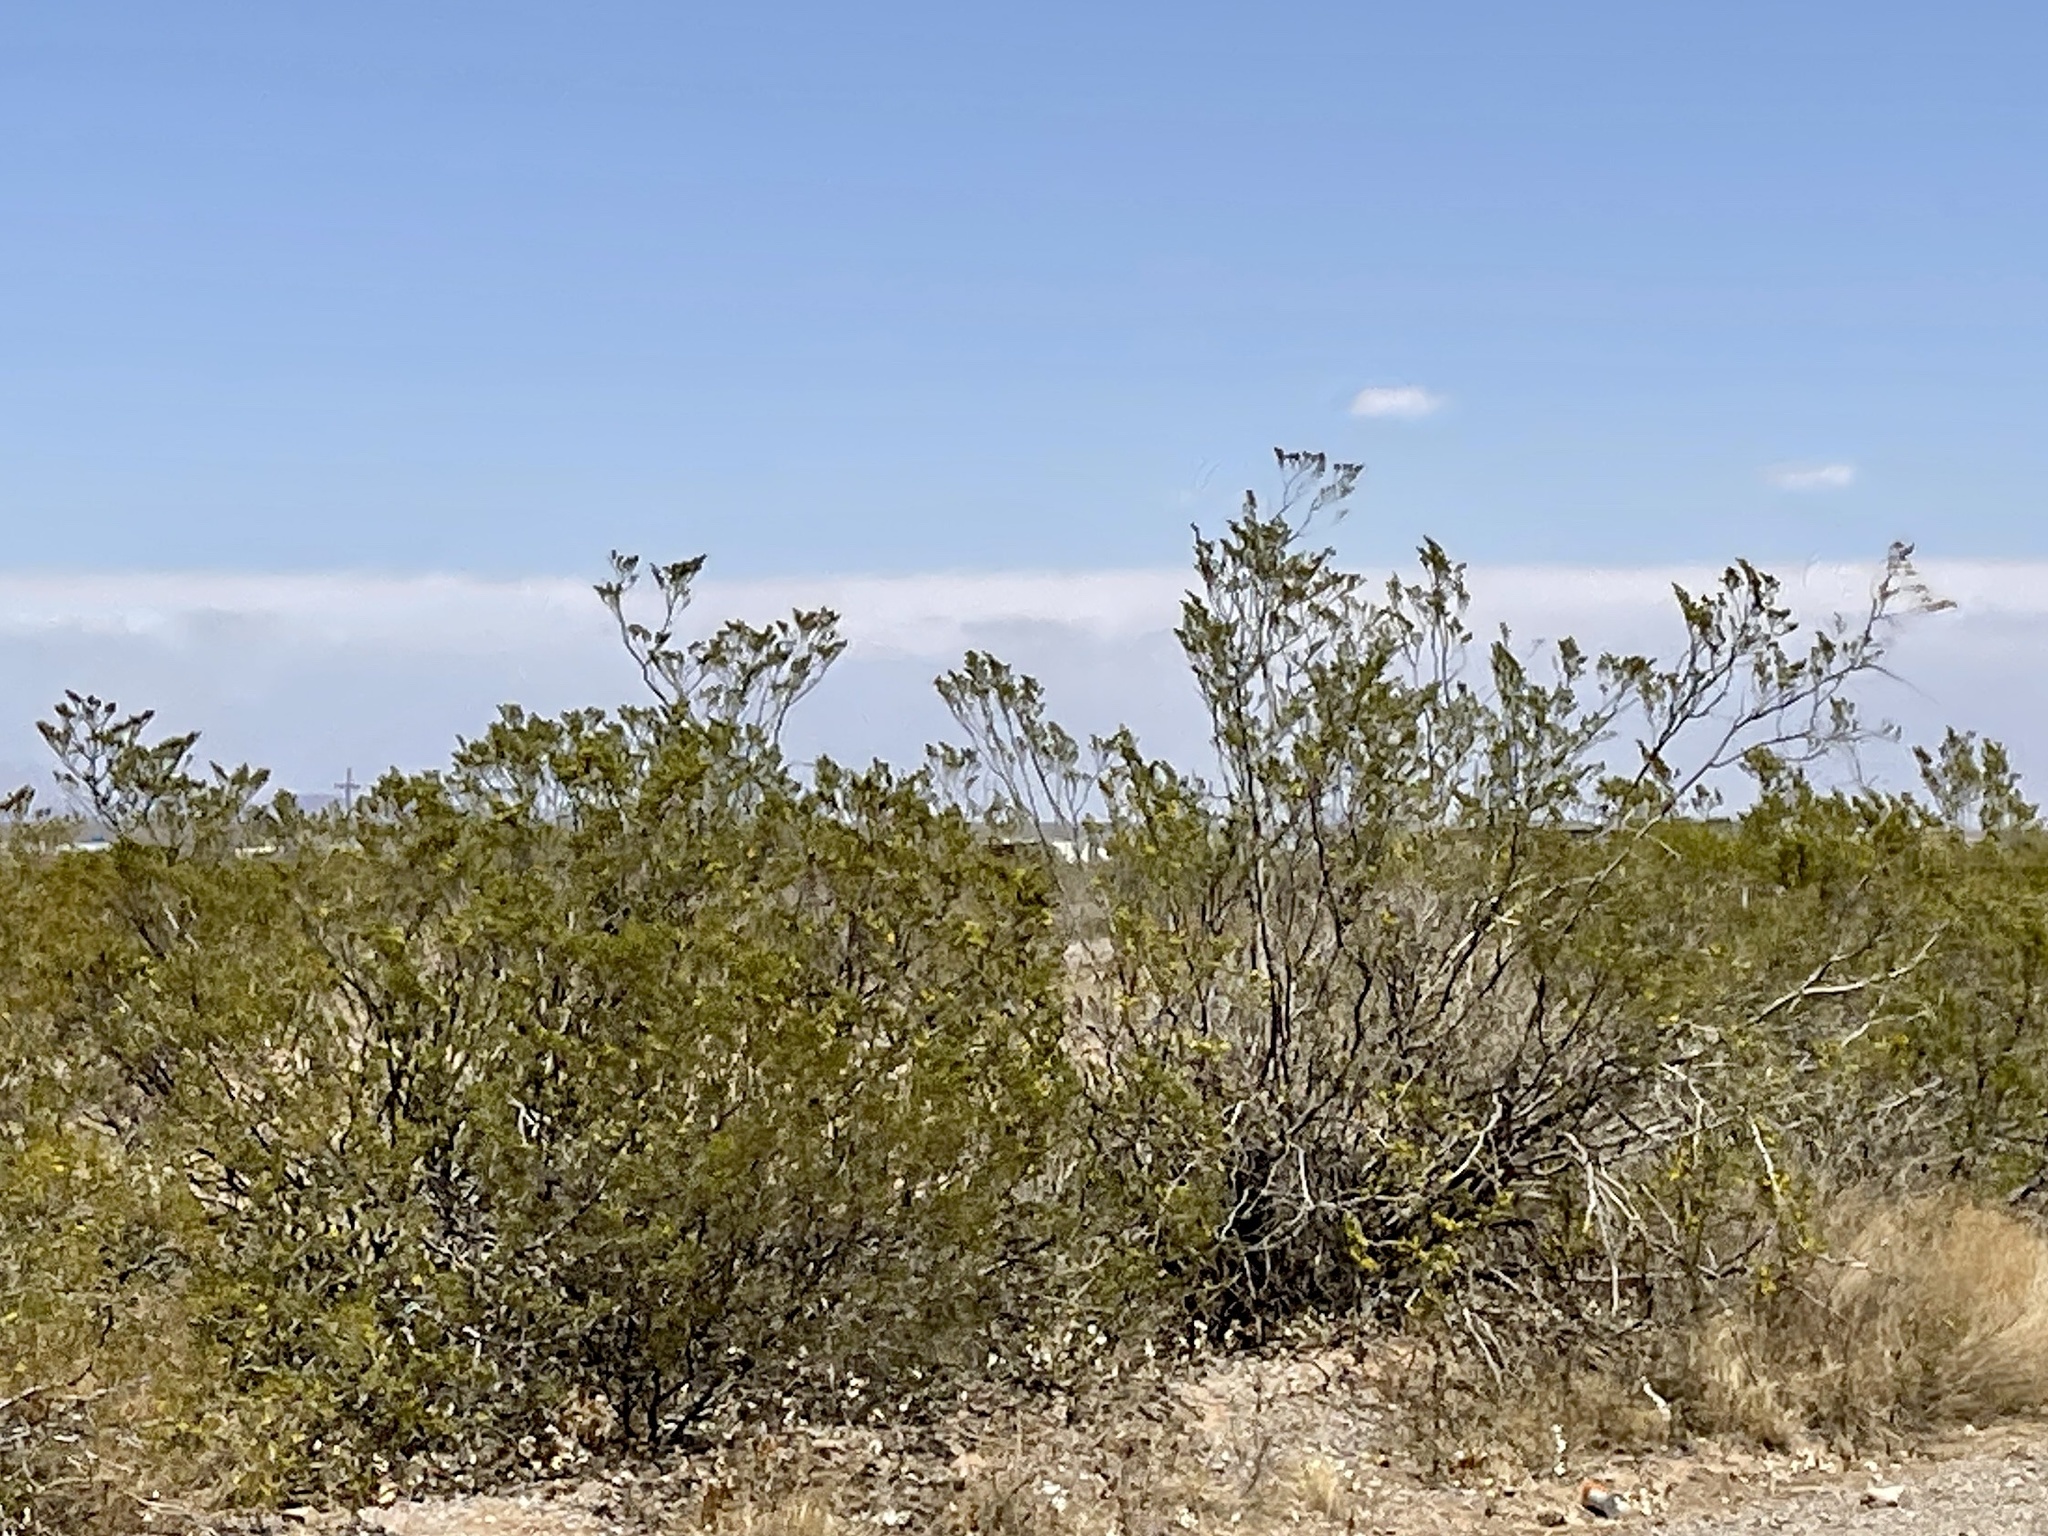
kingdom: Plantae
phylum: Tracheophyta
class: Magnoliopsida
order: Zygophyllales
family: Zygophyllaceae
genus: Larrea
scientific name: Larrea tridentata
